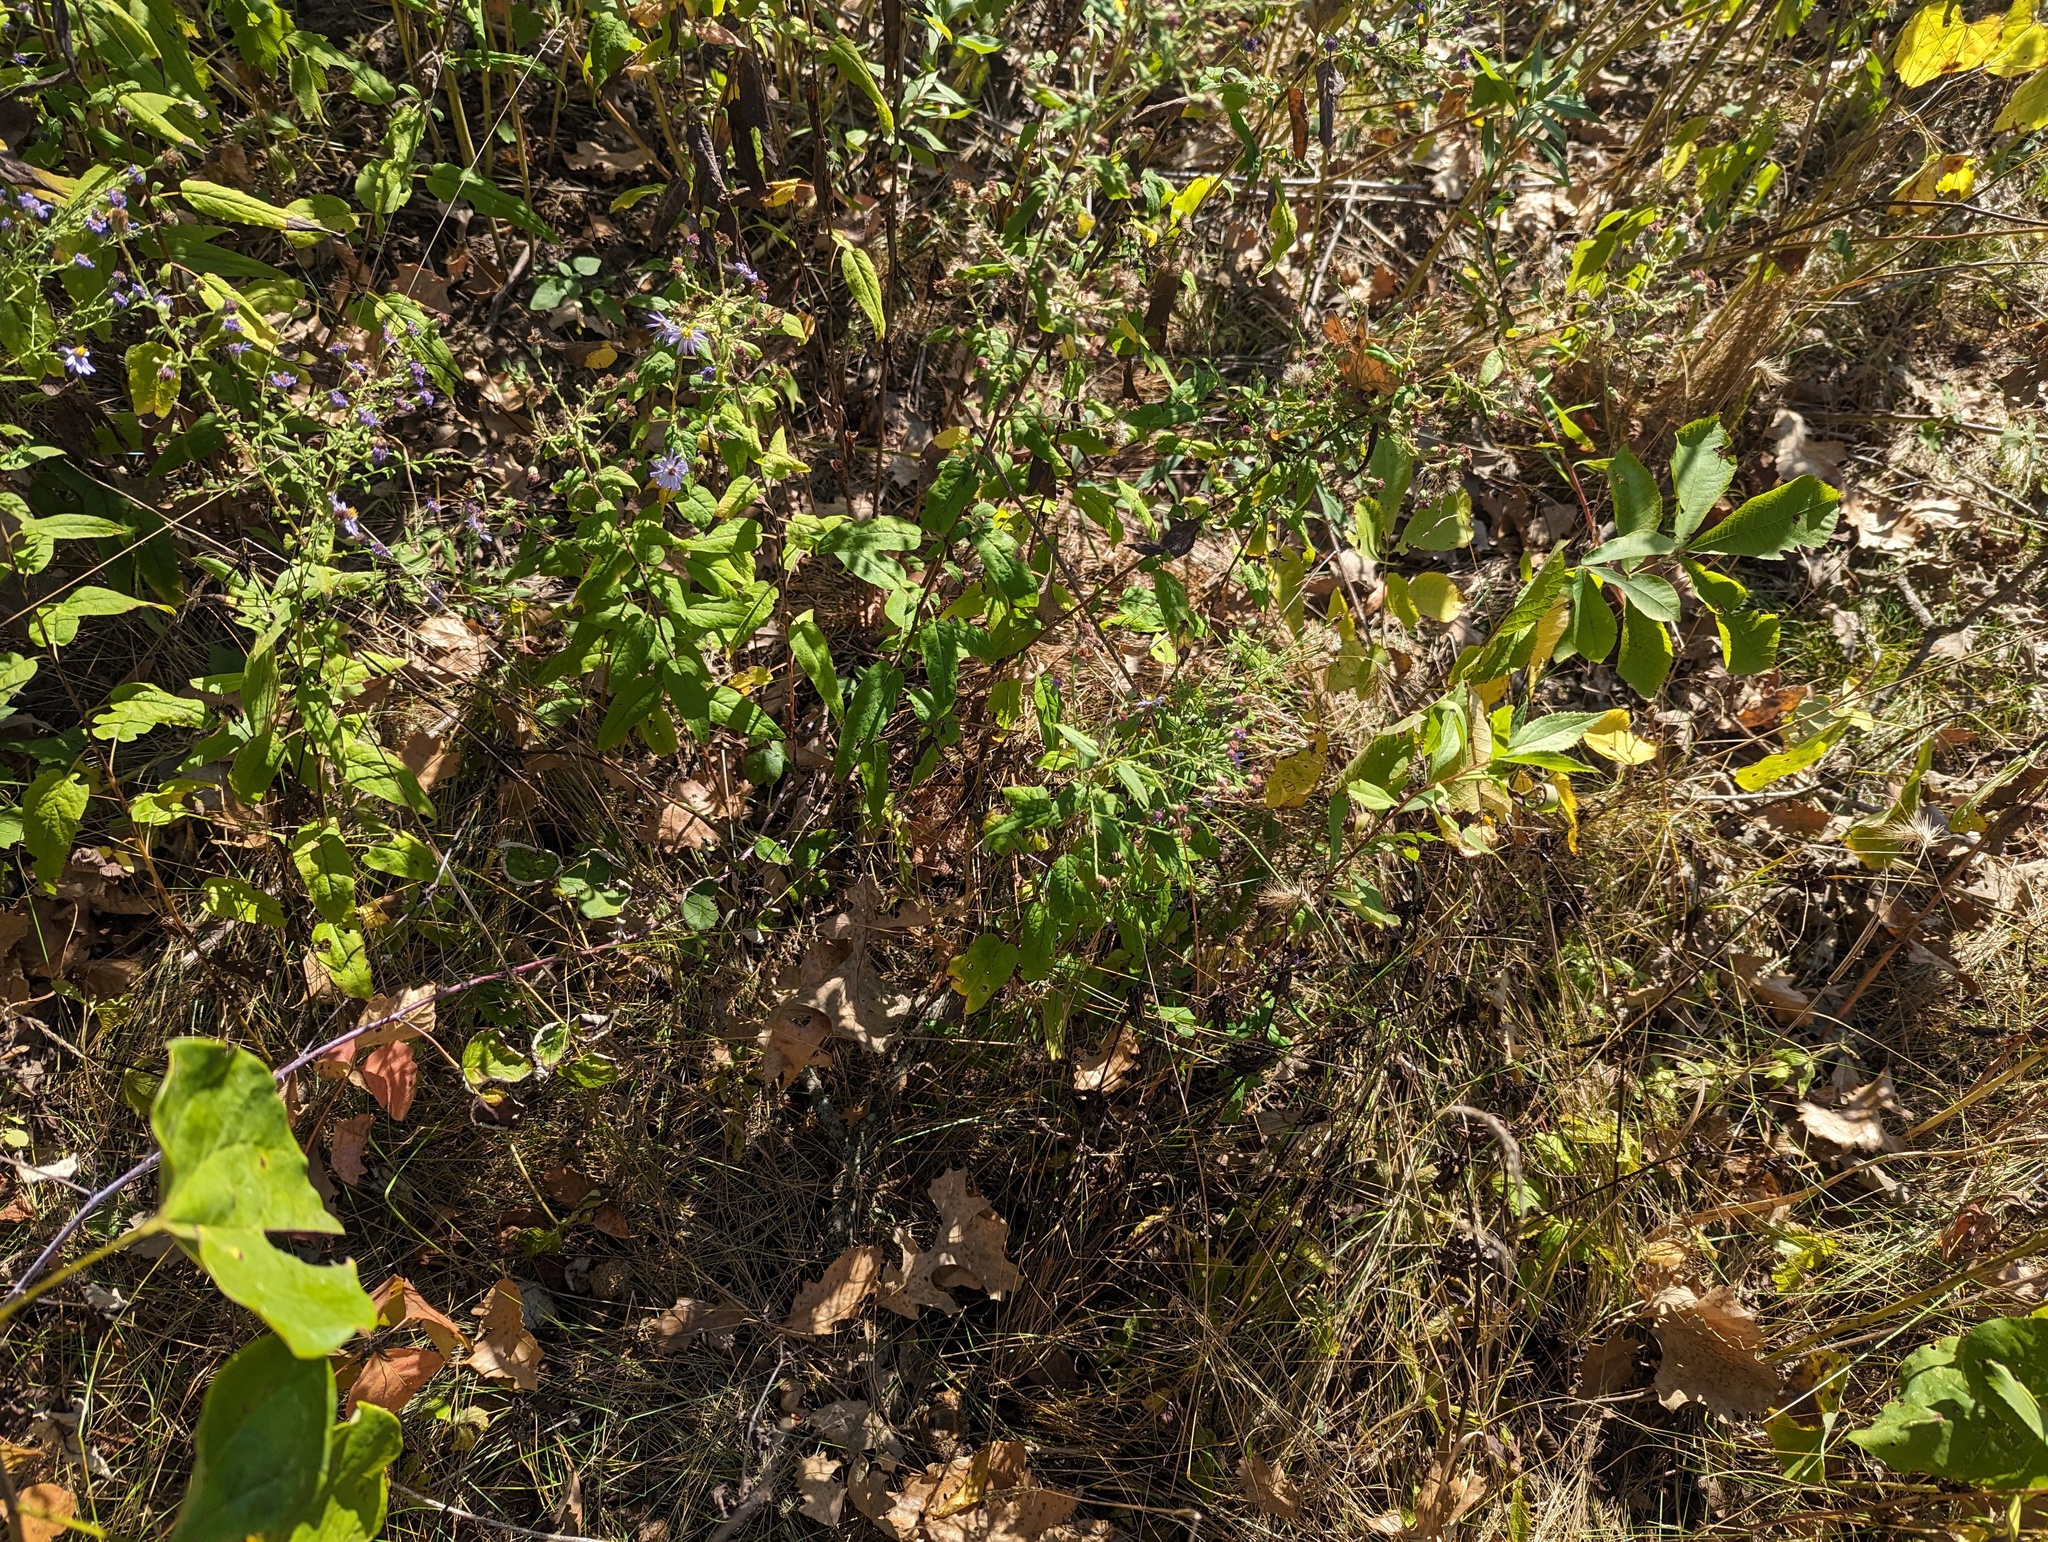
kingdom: Plantae
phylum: Tracheophyta
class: Magnoliopsida
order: Asterales
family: Asteraceae
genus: Symphyotrichum
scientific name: Symphyotrichum shortii
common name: Short's aster
